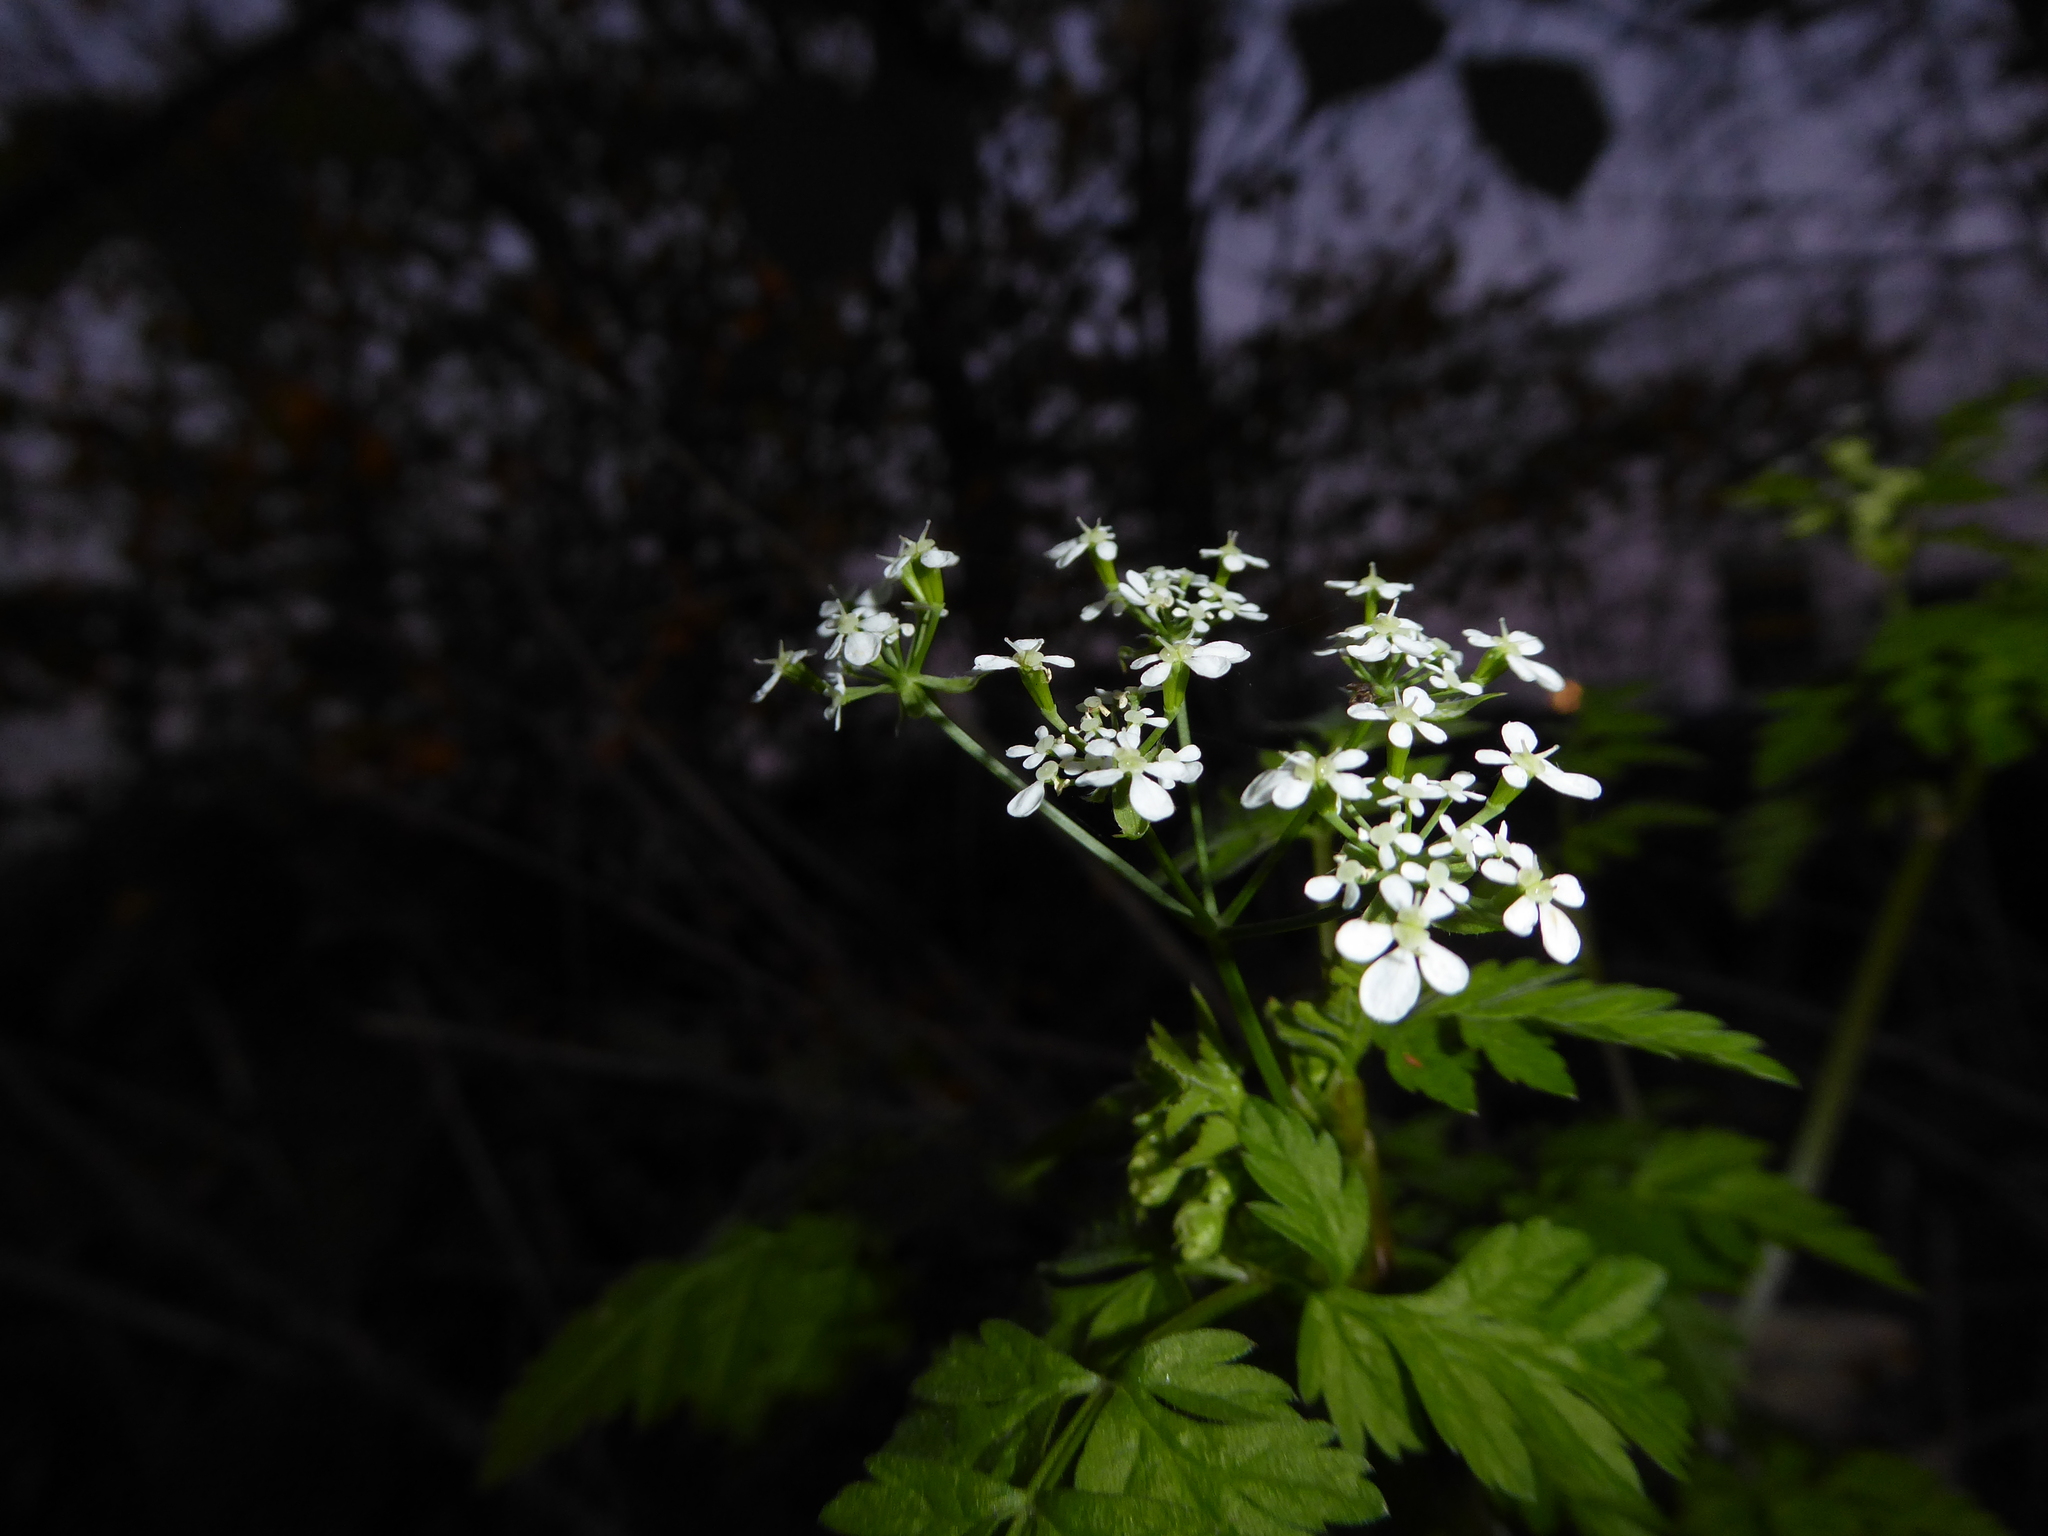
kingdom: Plantae
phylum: Tracheophyta
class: Magnoliopsida
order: Apiales
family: Apiaceae
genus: Anthriscus
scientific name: Anthriscus sylvestris
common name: Cow parsley
